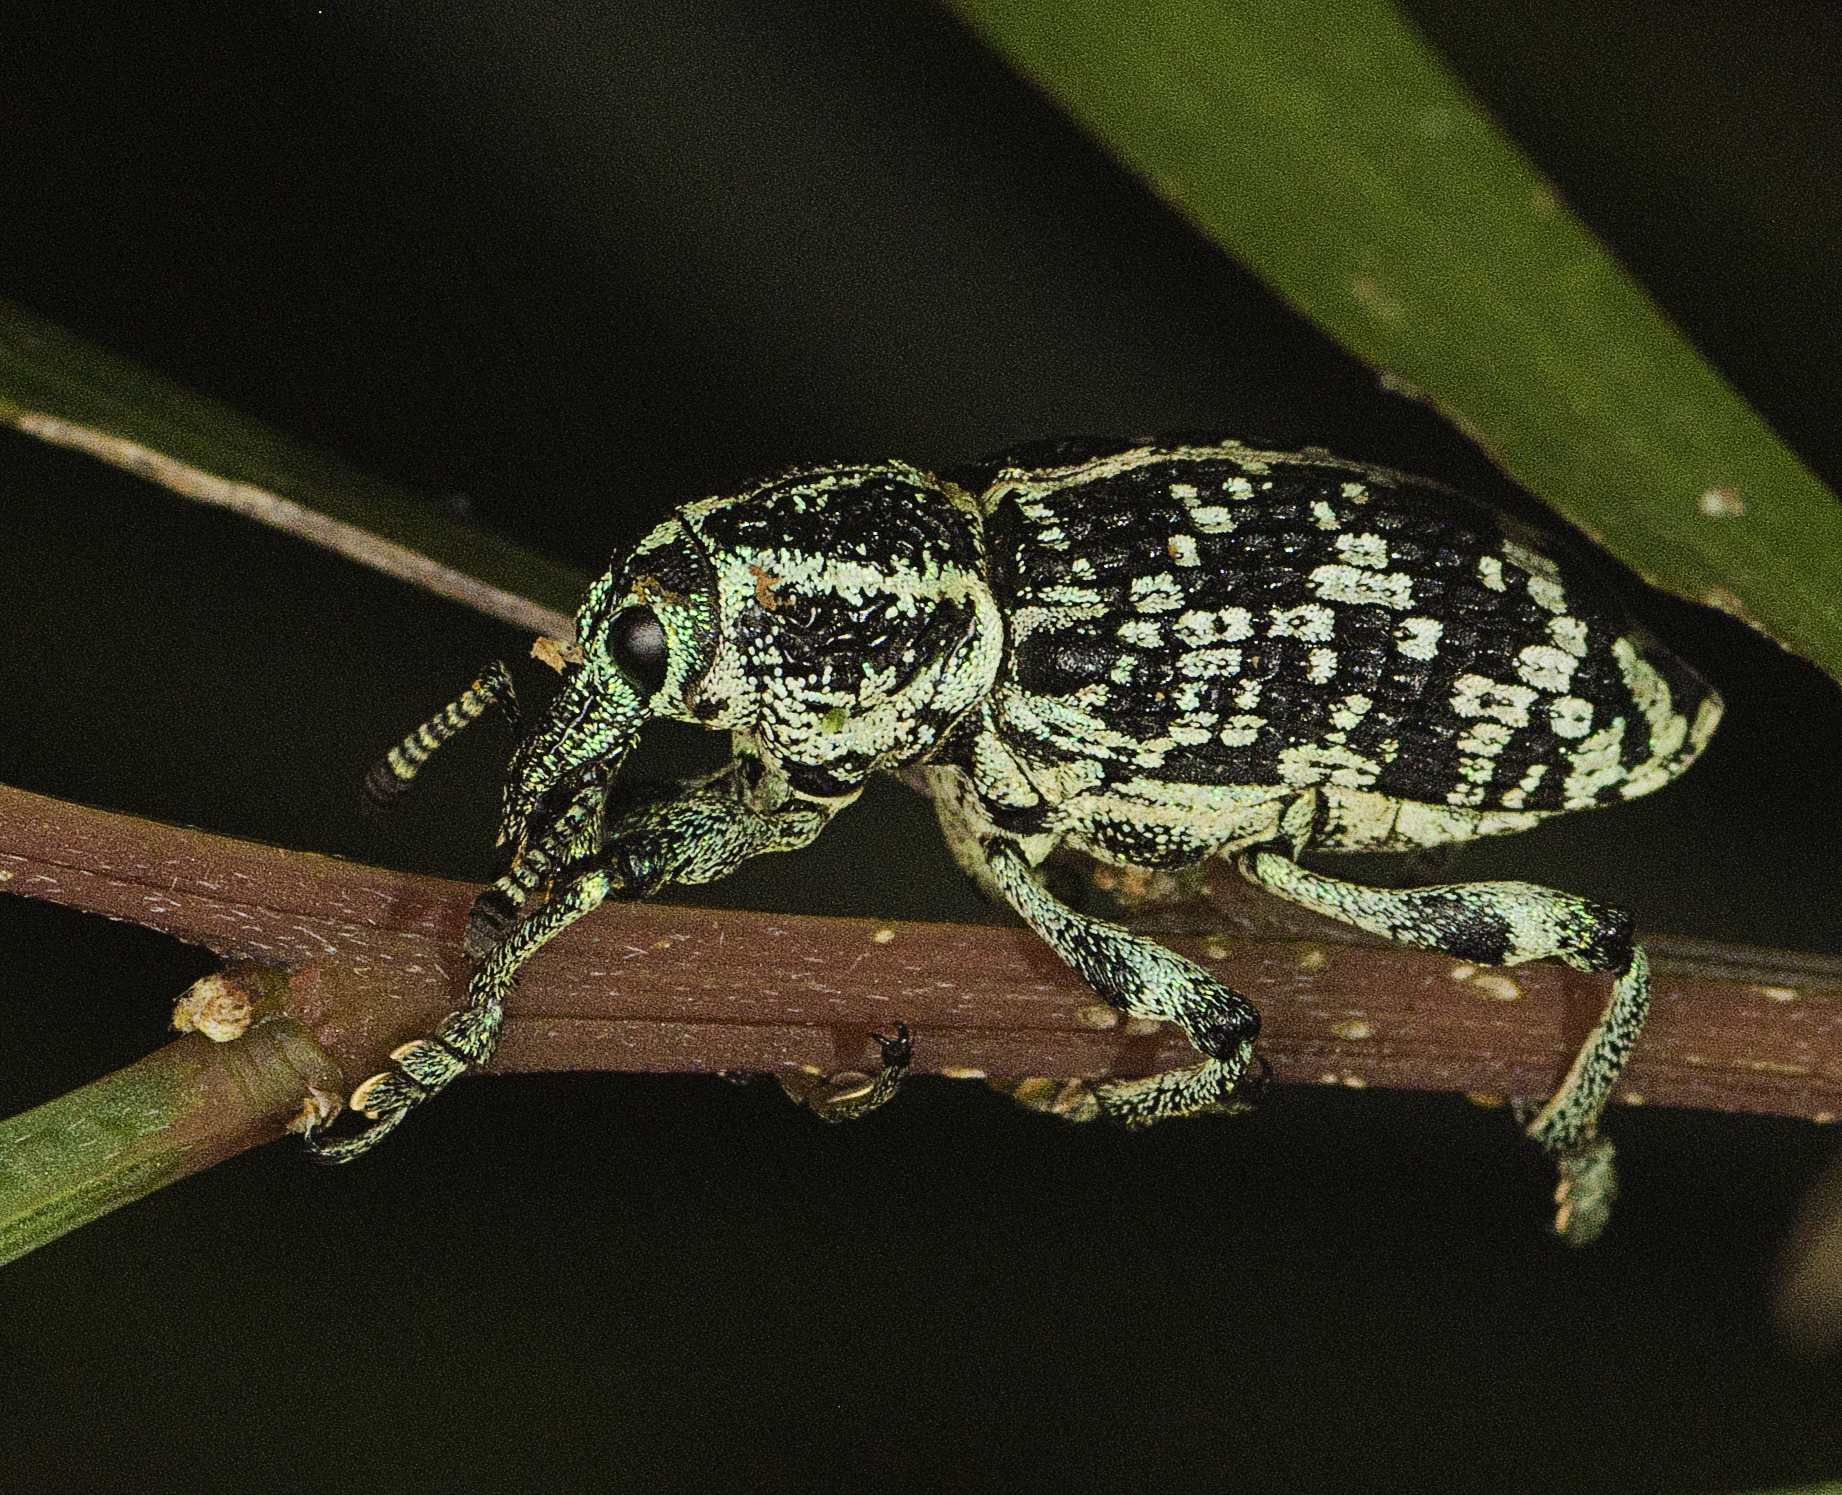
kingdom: Animalia
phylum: Arthropoda
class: Insecta
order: Coleoptera
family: Curculionidae
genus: Chrysolopus
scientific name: Chrysolopus spectabilis
